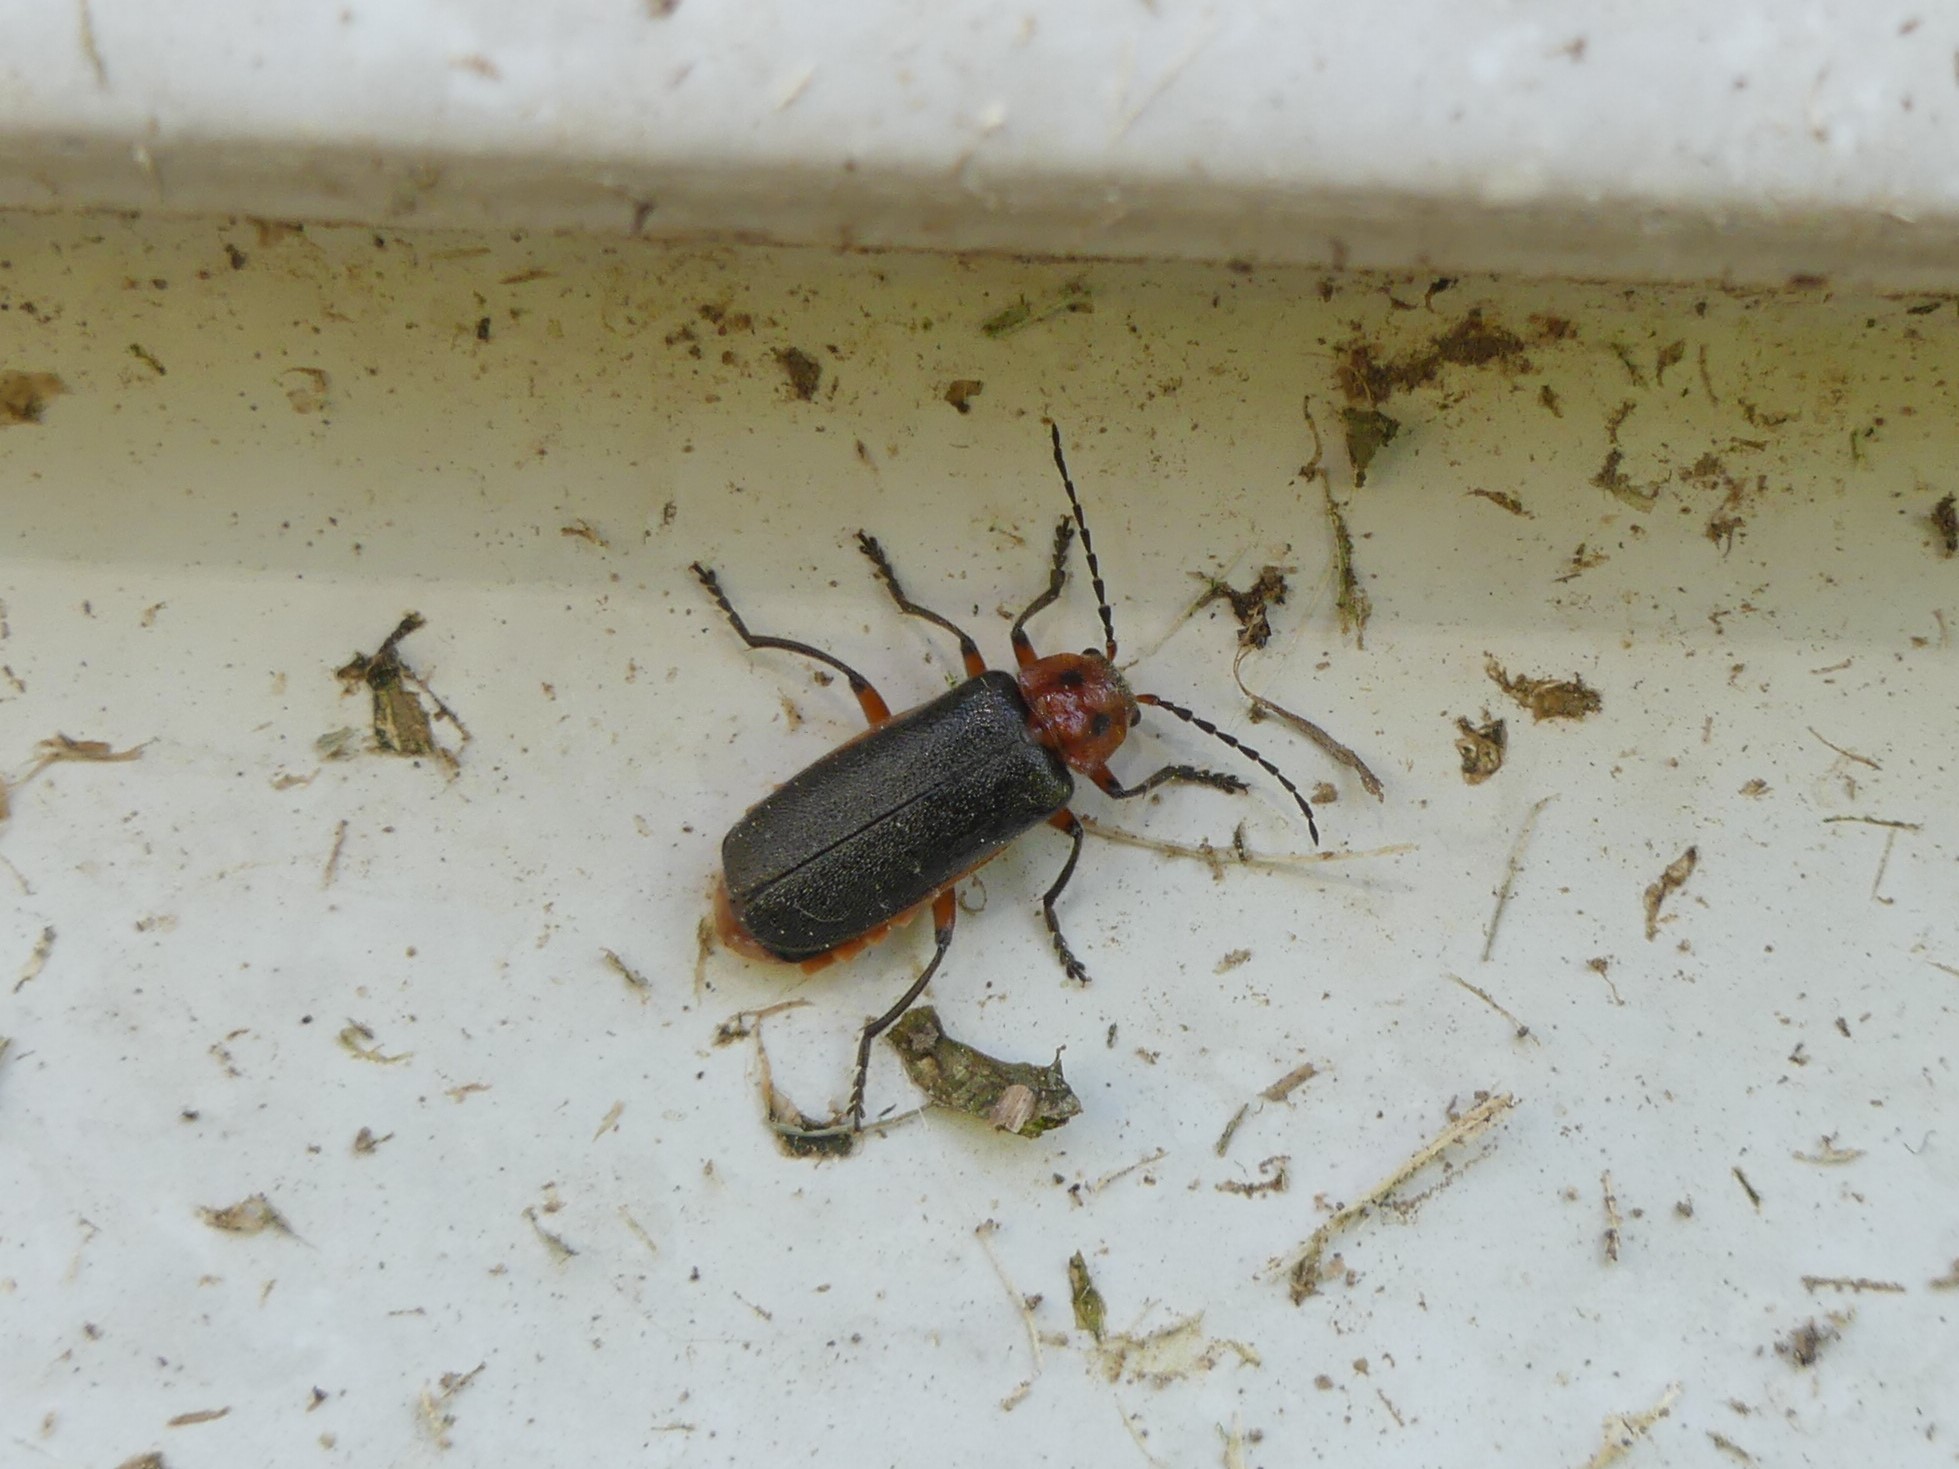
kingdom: Animalia
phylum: Arthropoda
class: Insecta
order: Coleoptera
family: Cantharidae
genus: Atalantycha
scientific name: Atalantycha bilineata
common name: Two-lined leatherwing
